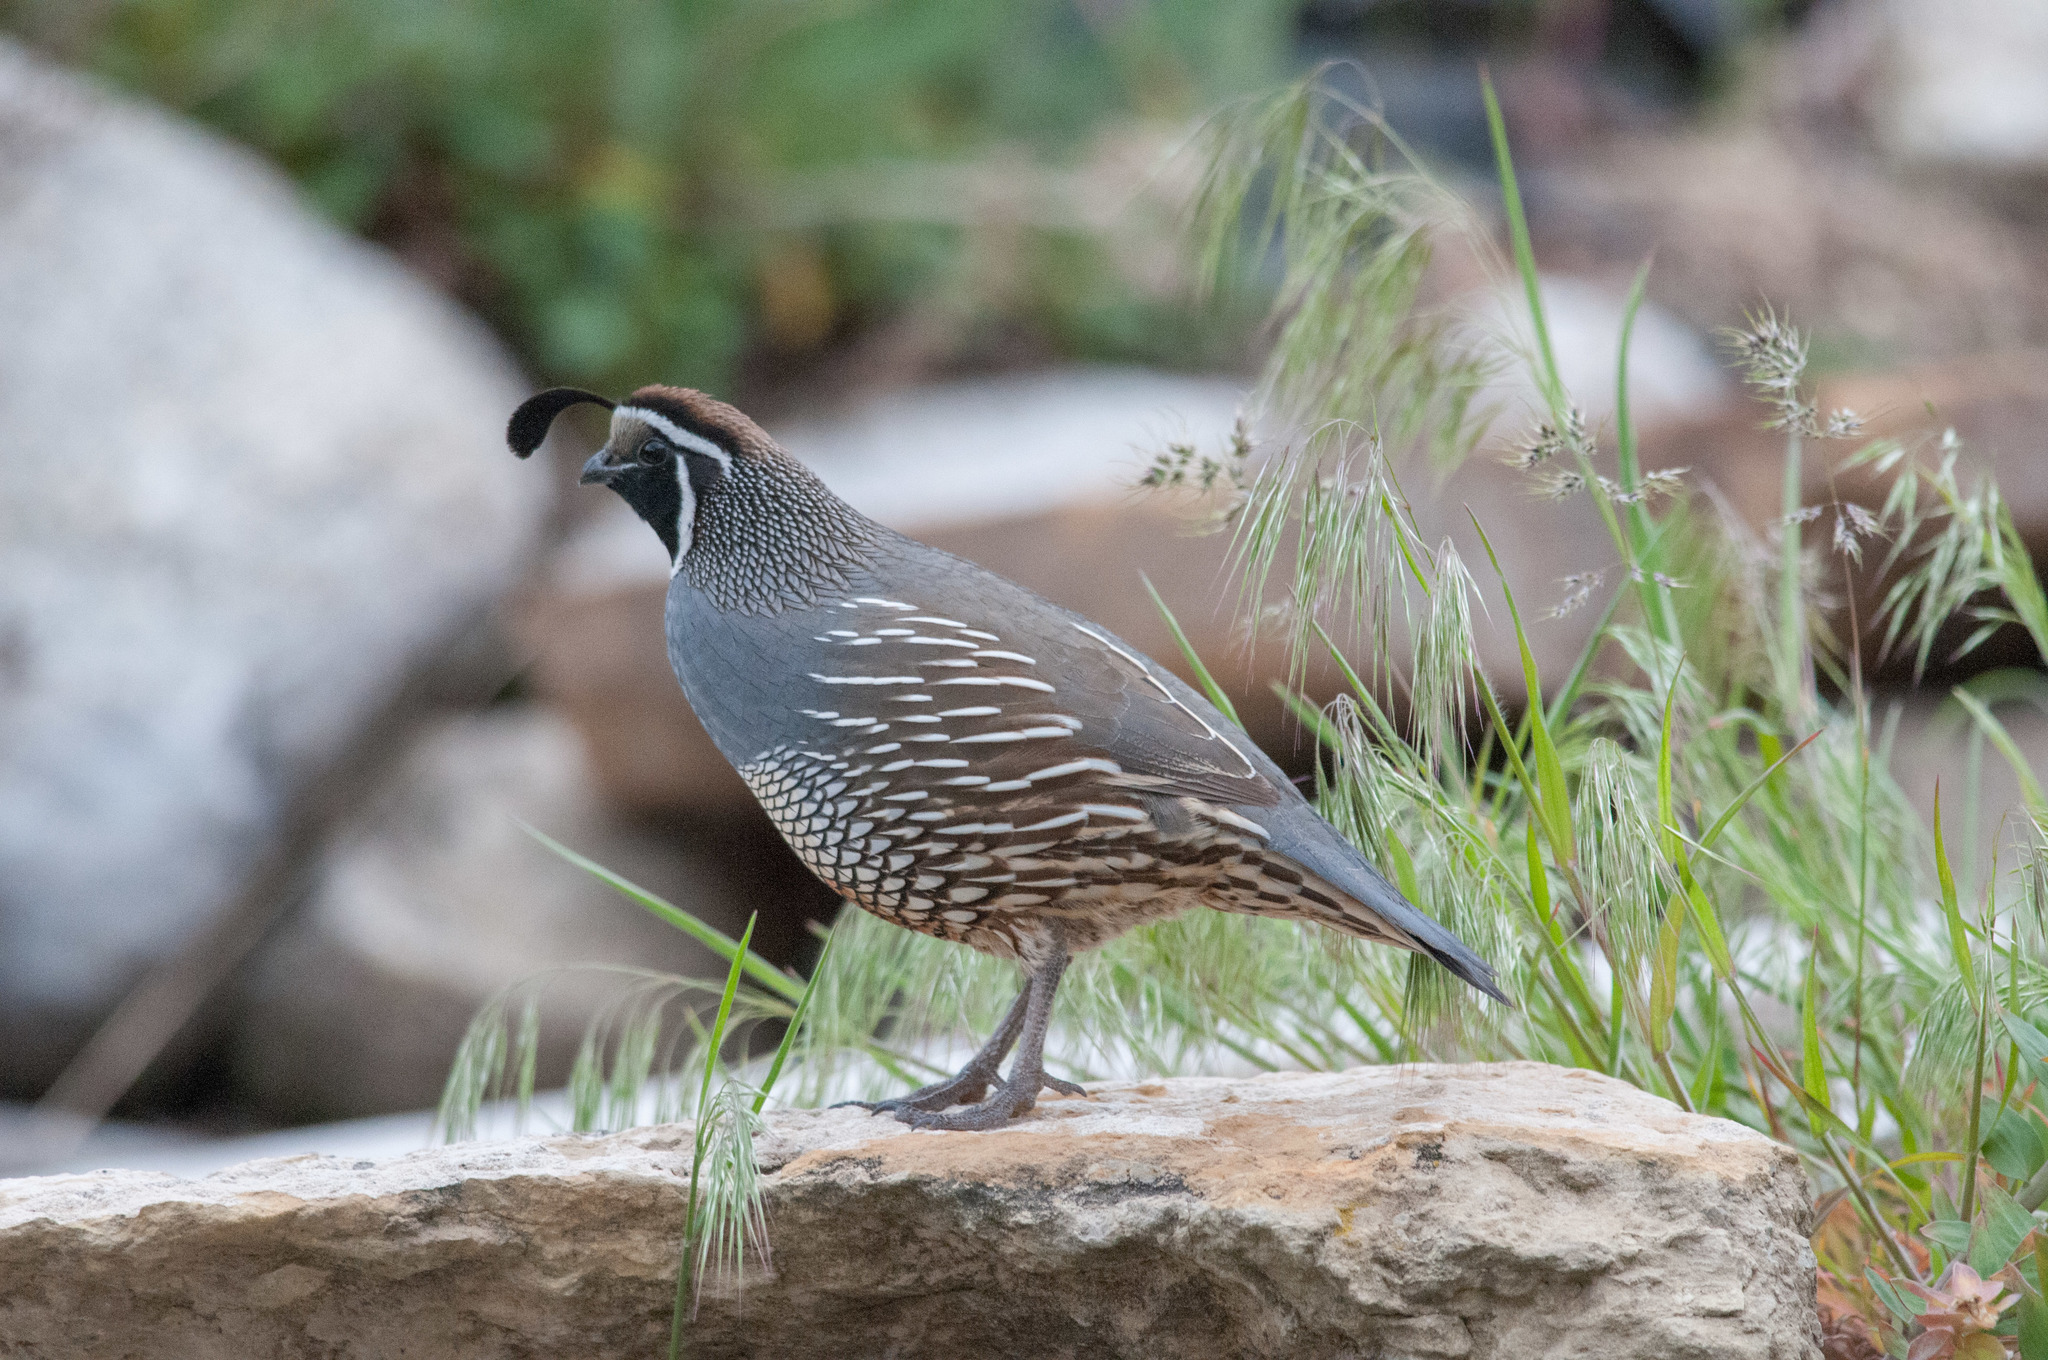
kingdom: Animalia
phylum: Chordata
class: Aves
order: Galliformes
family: Odontophoridae
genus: Callipepla
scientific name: Callipepla californica
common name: California quail
